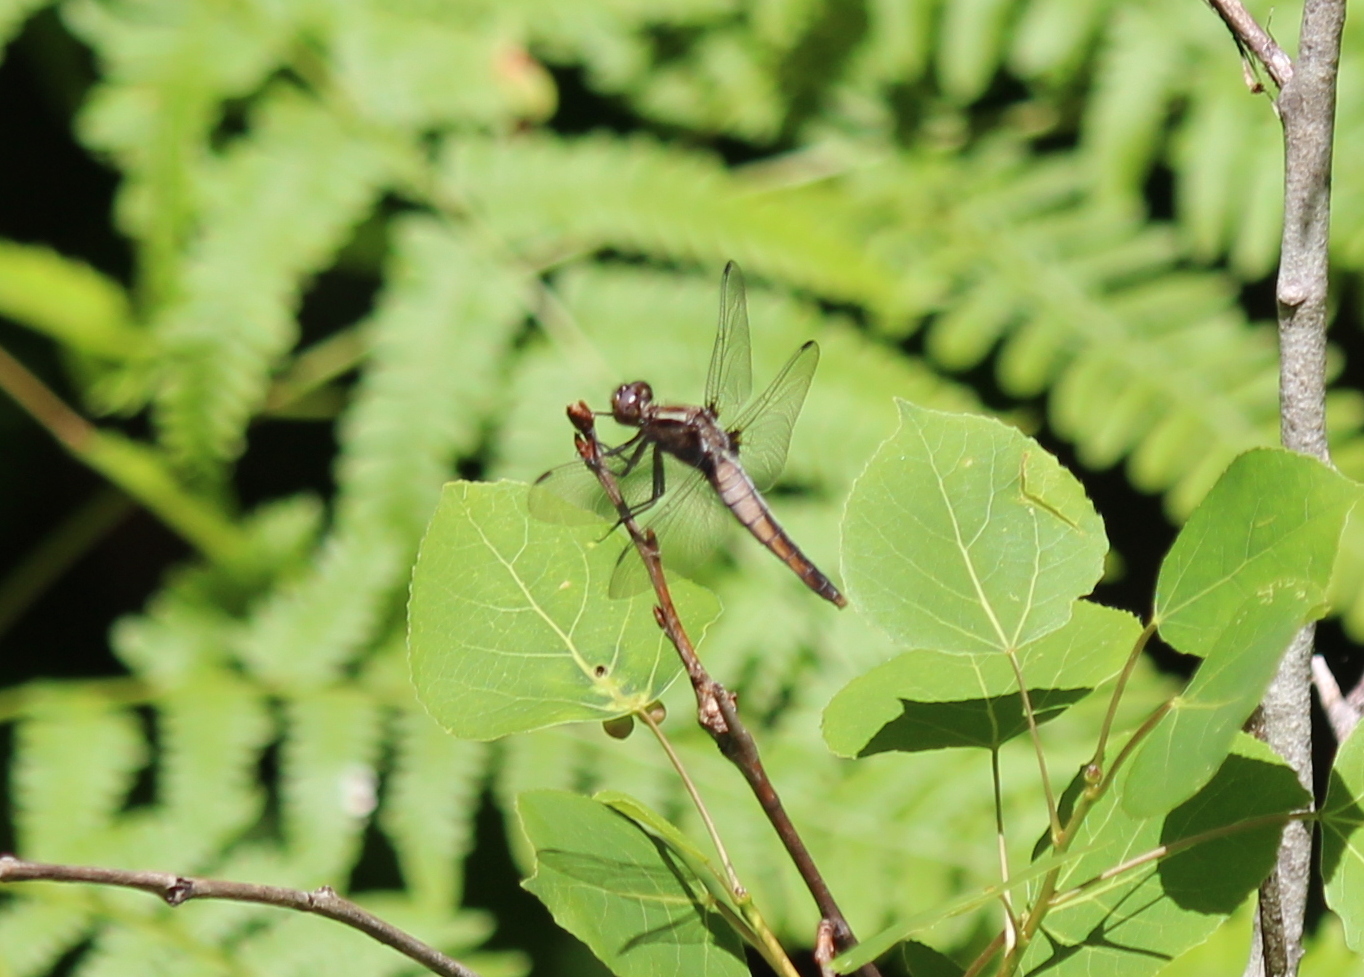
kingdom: Animalia
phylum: Arthropoda
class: Insecta
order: Odonata
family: Libellulidae
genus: Ladona
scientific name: Ladona julia
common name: Chalk-fronted corporal
